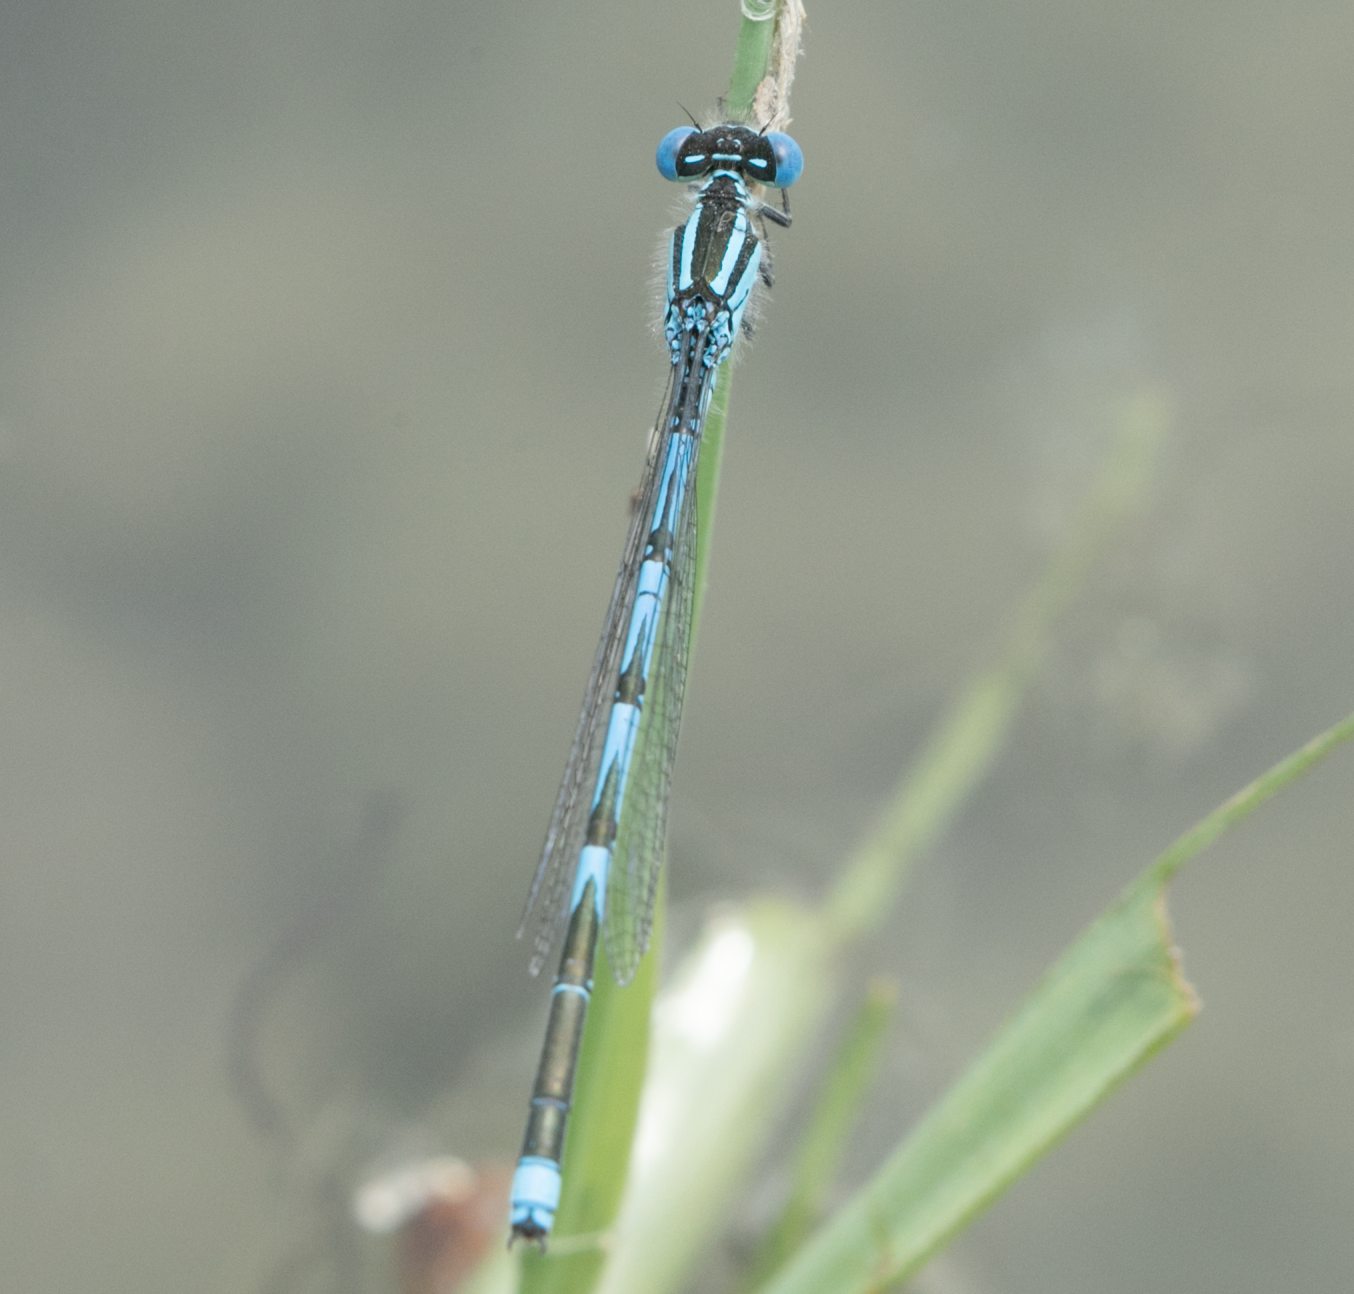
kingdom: Animalia
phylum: Arthropoda
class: Insecta
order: Odonata
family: Coenagrionidae
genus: Erythromma
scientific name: Erythromma lindenii
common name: Blue-eye
